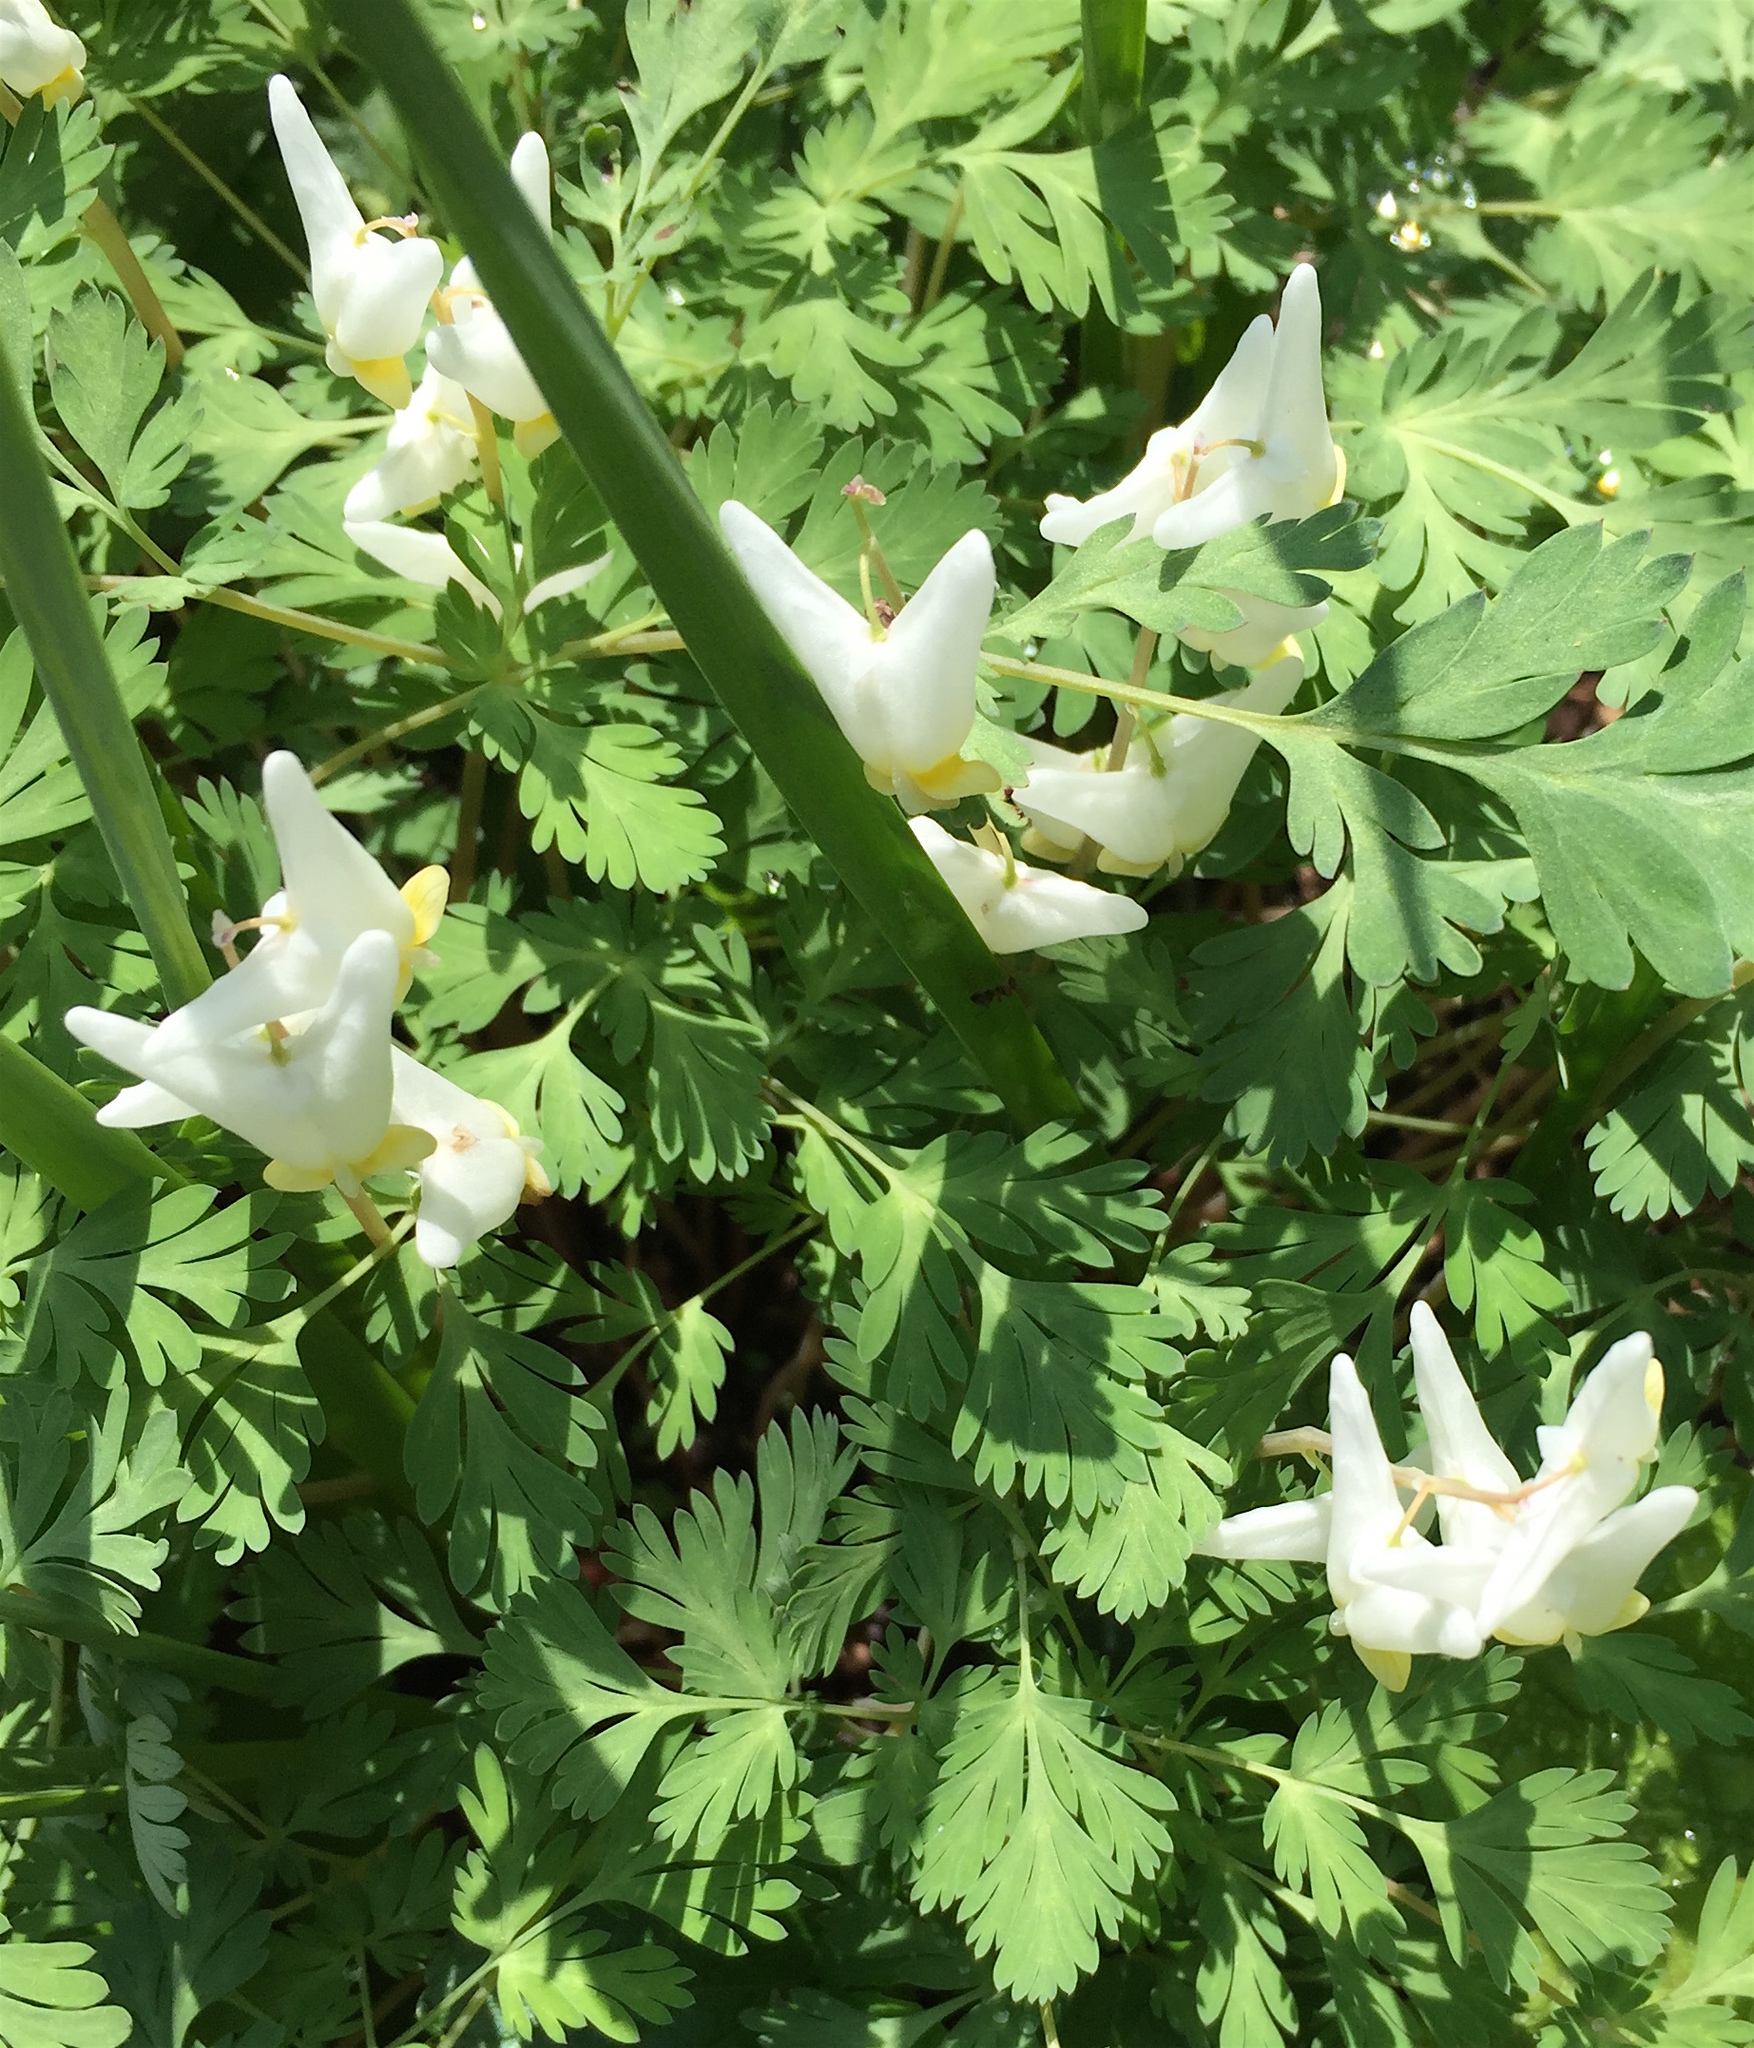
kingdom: Plantae
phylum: Tracheophyta
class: Magnoliopsida
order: Ranunculales
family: Papaveraceae
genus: Dicentra
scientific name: Dicentra cucullaria
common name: Dutchman's breeches
